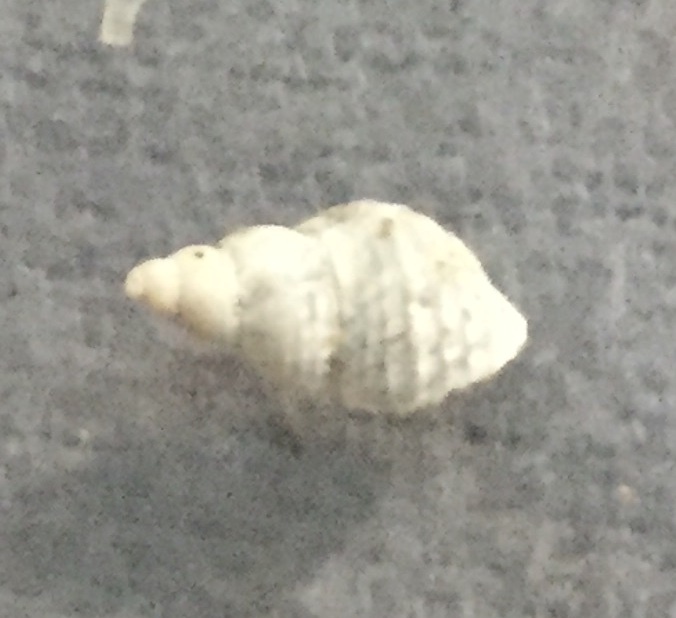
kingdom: Animalia
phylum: Mollusca
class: Gastropoda
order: Littorinimorpha
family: Capulidae
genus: Trichosirius
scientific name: Trichosirius inornatus
